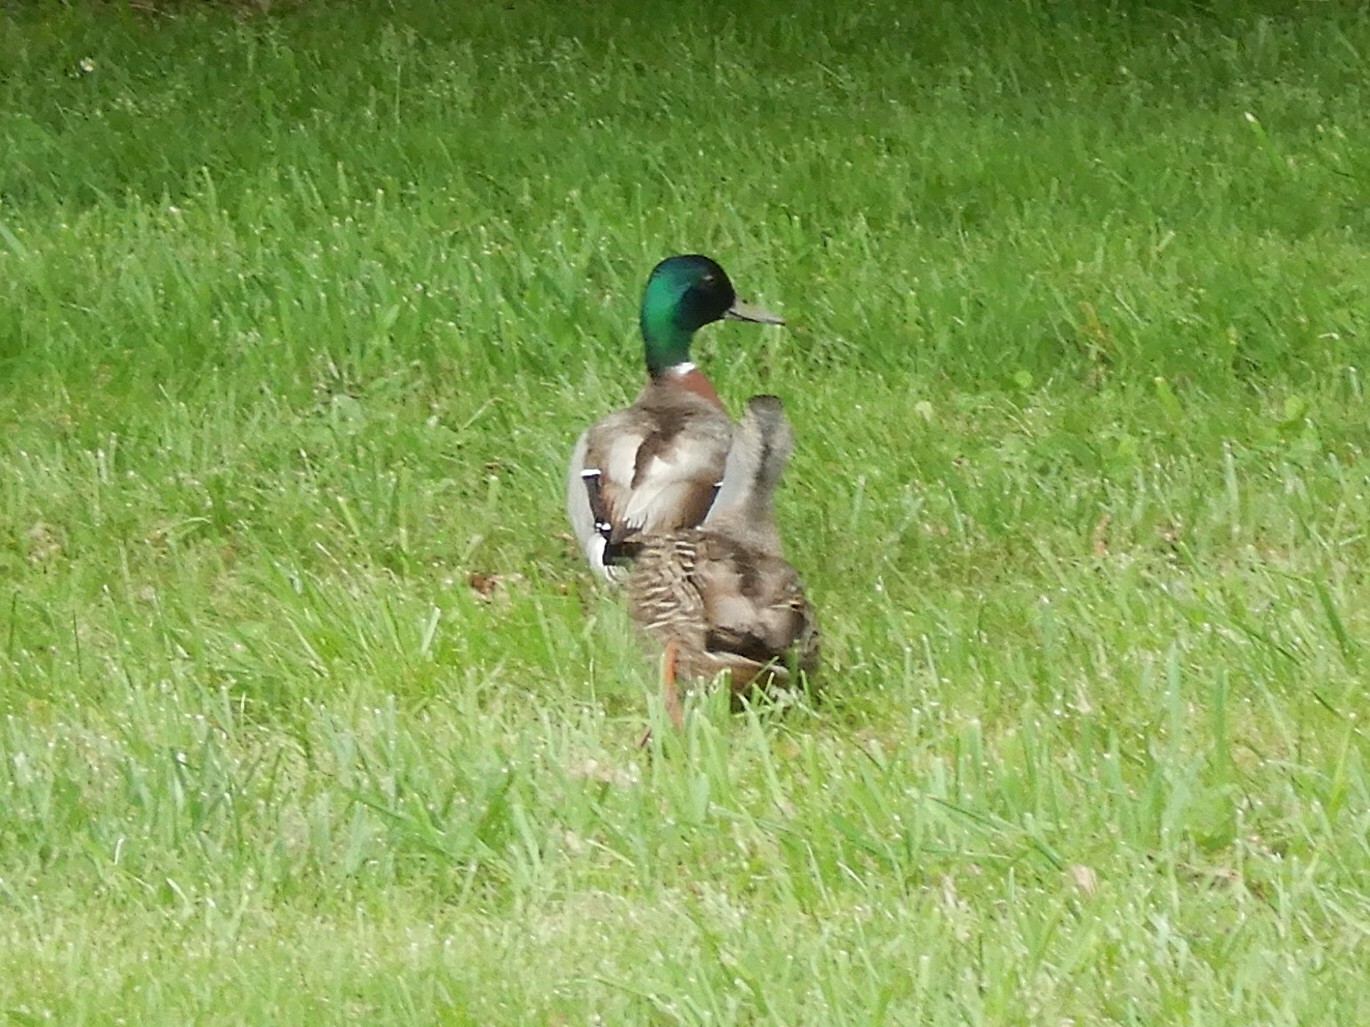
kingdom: Animalia
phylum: Chordata
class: Aves
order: Anseriformes
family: Anatidae
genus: Anas
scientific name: Anas platyrhynchos
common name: Mallard
